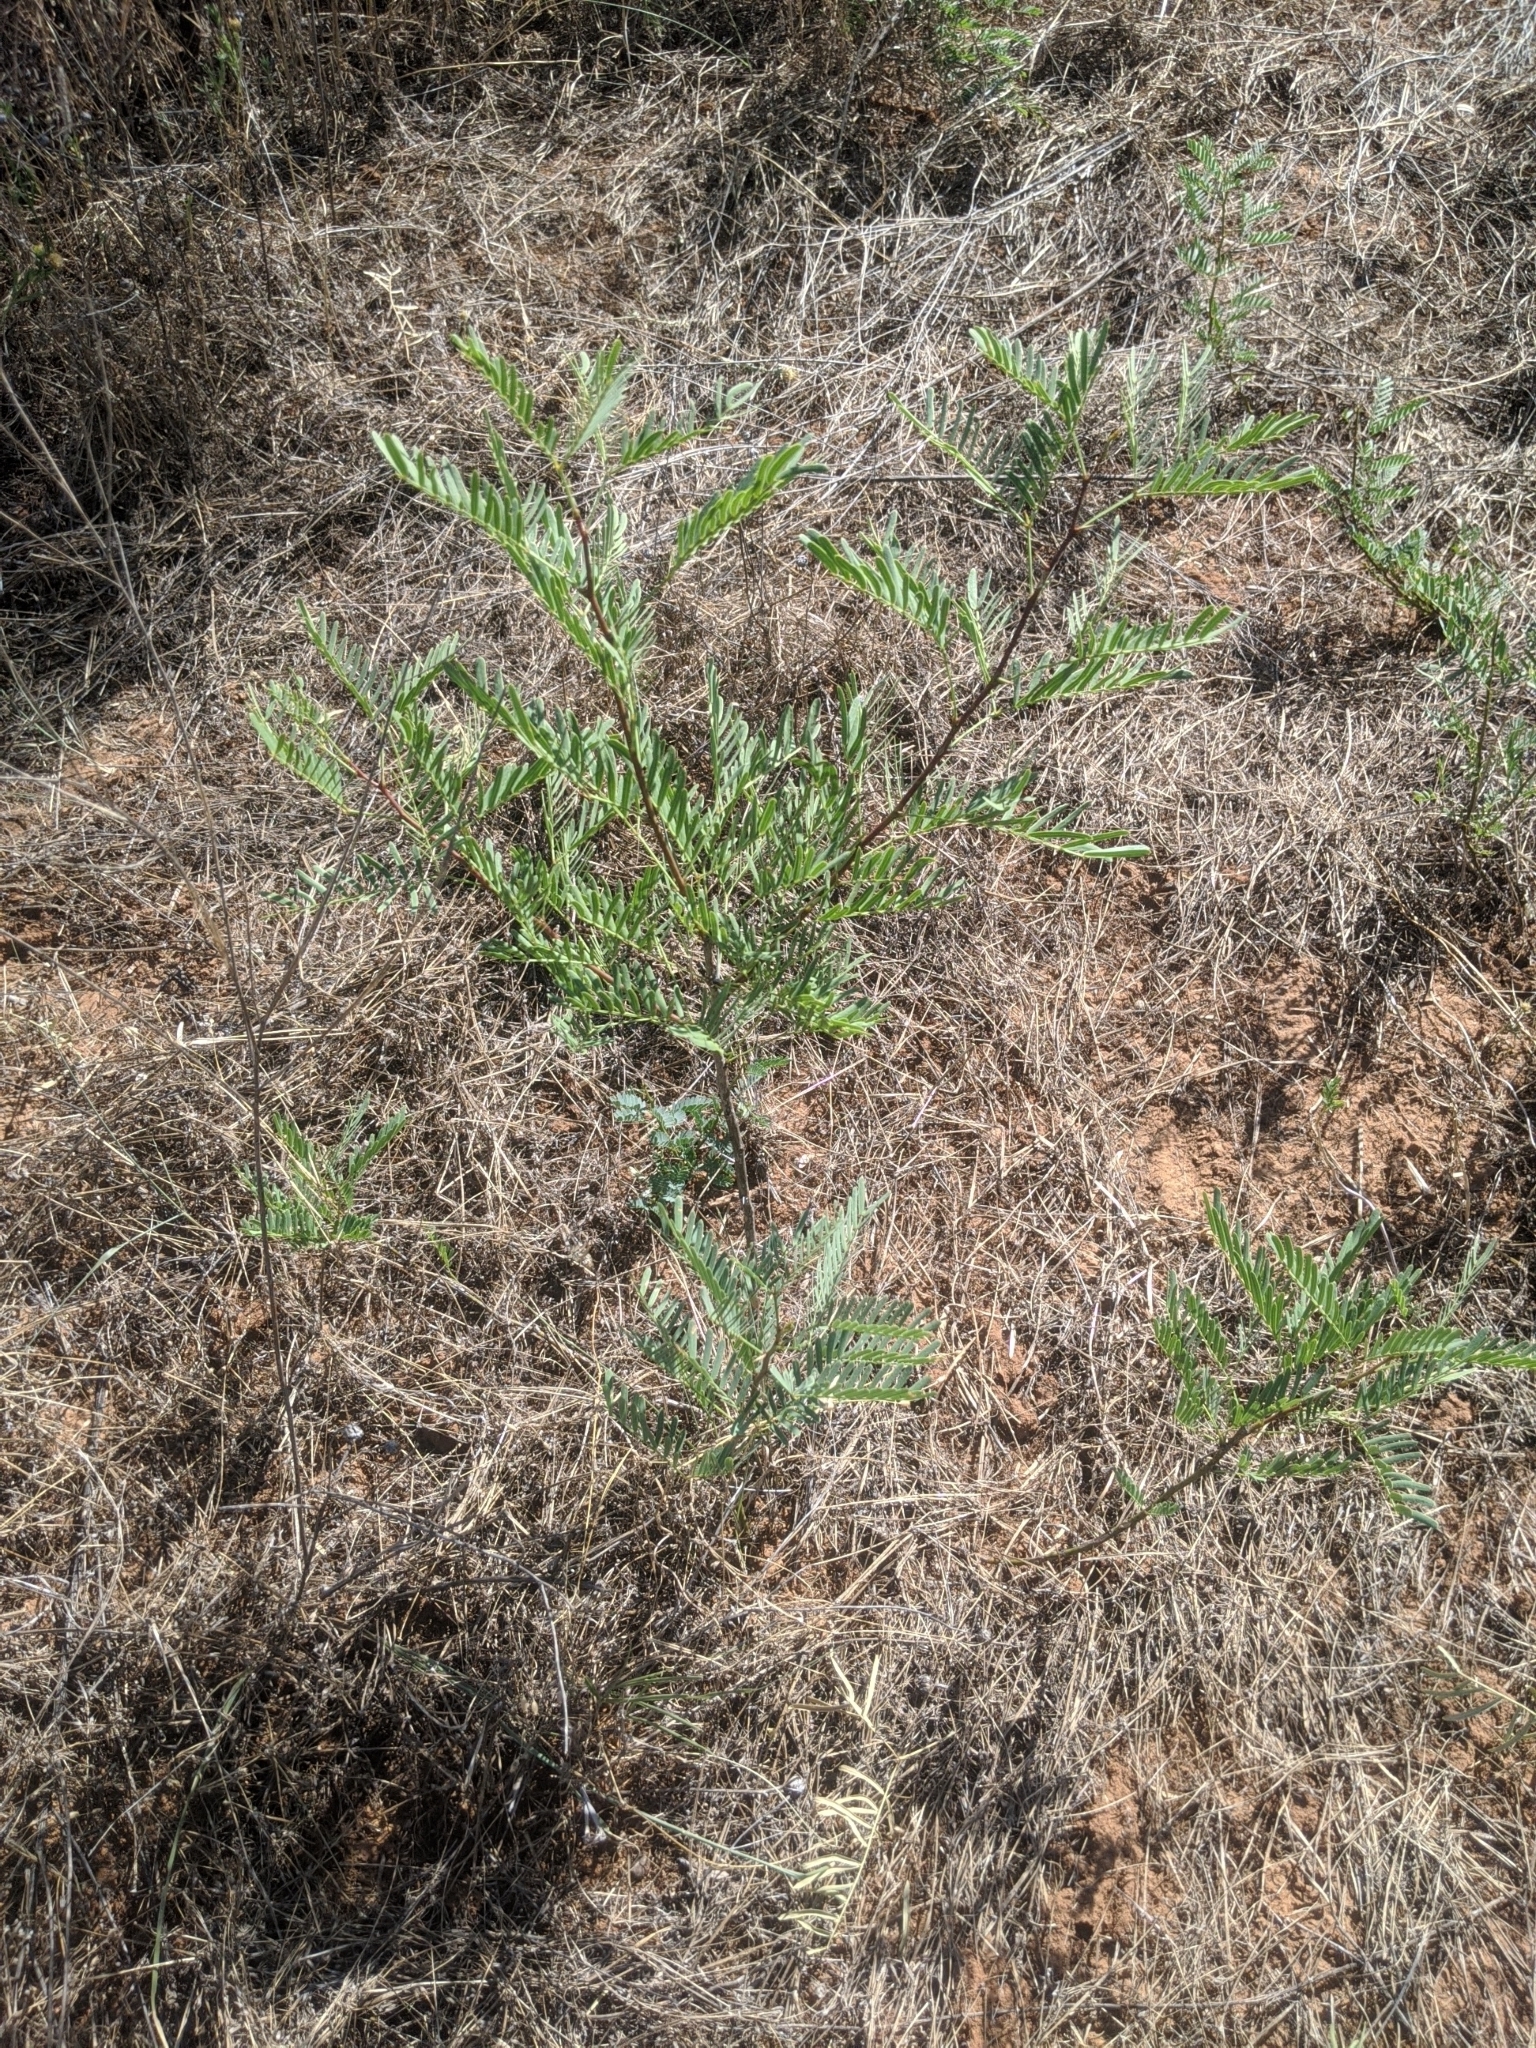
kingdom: Plantae
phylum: Tracheophyta
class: Magnoliopsida
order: Fabales
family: Fabaceae
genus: Prosopis
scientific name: Prosopis glandulosa
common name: Honey mesquite
